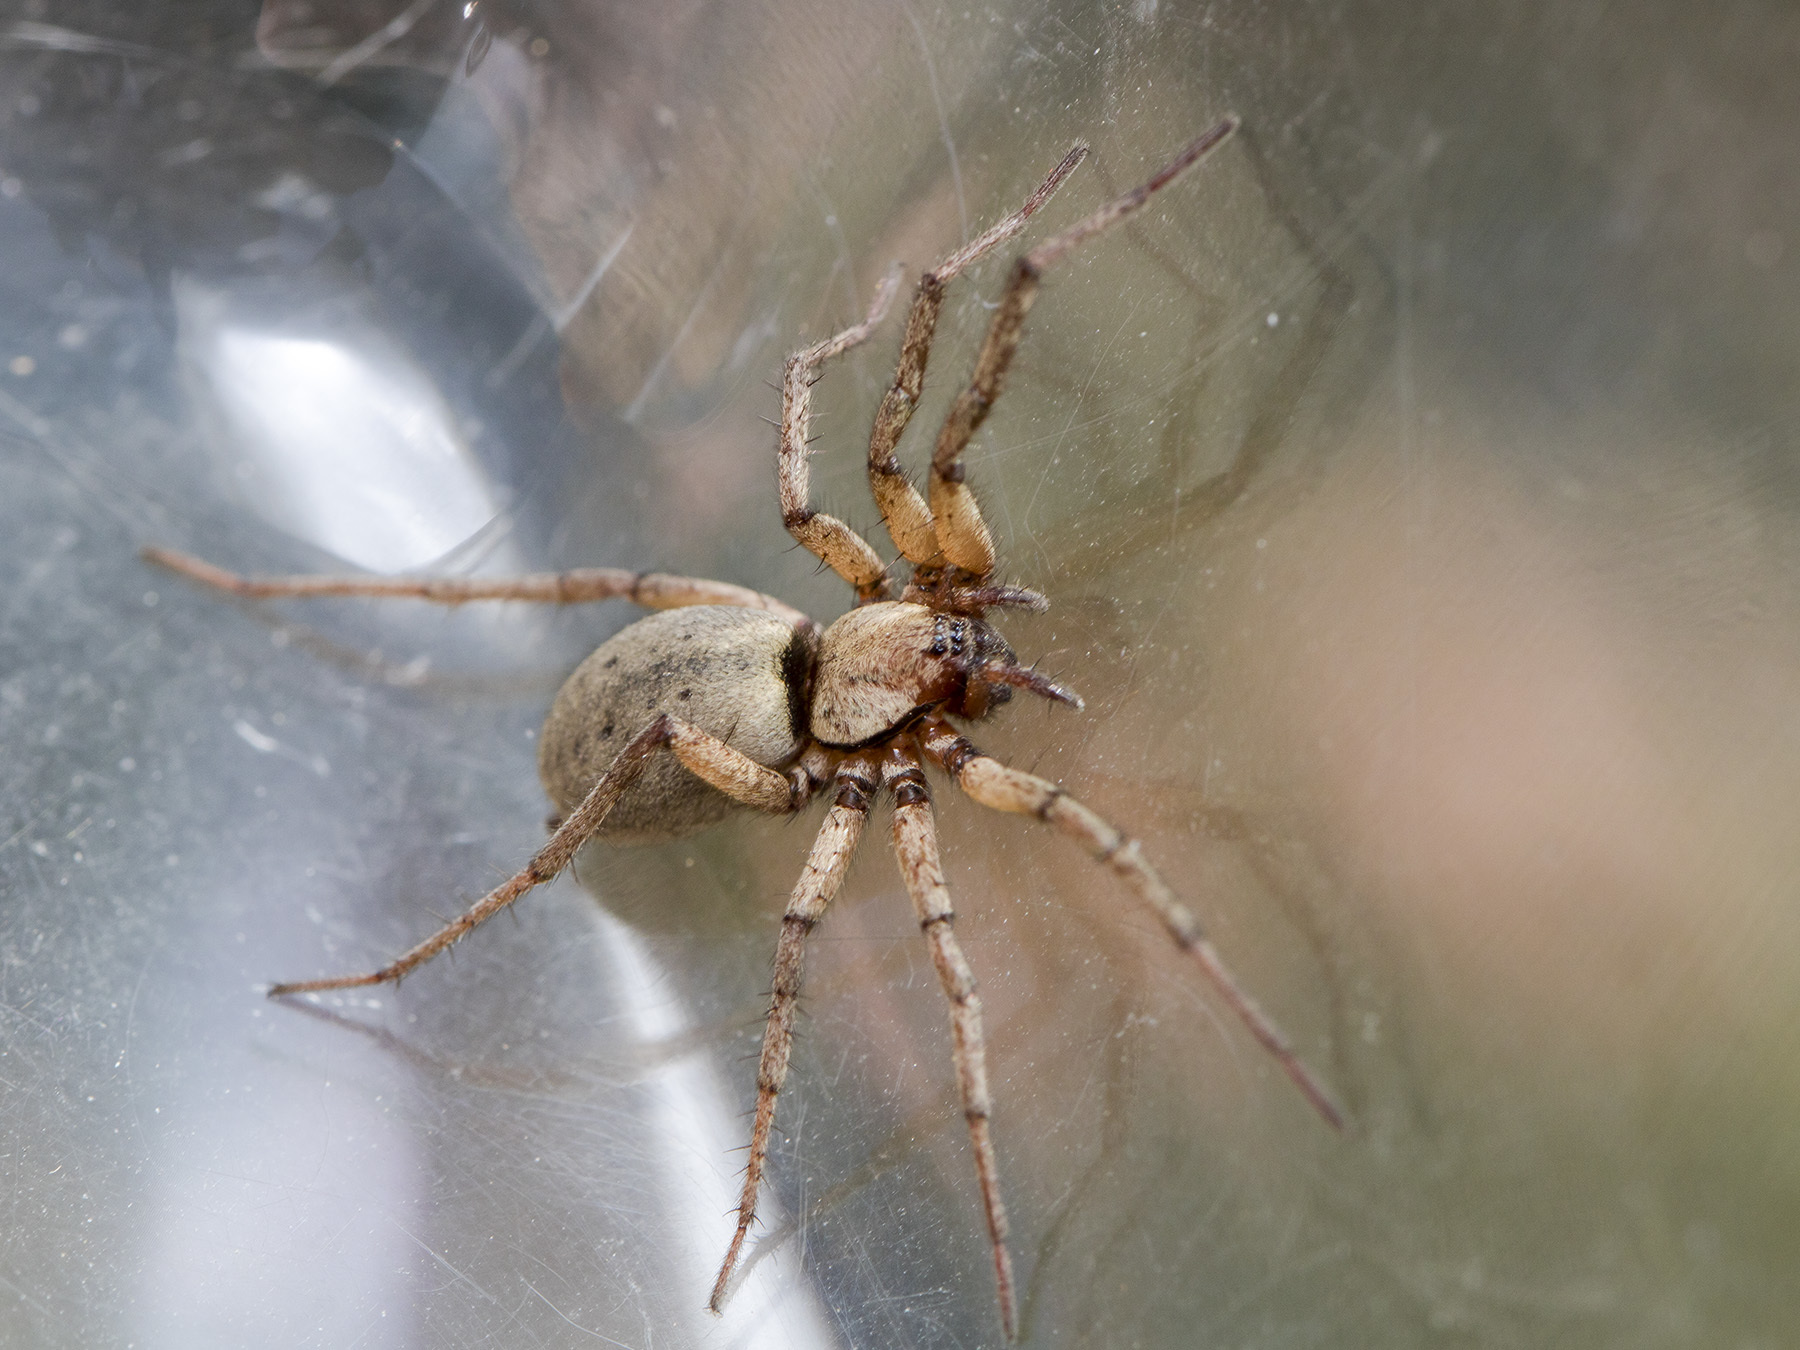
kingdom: Animalia
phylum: Arthropoda
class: Arachnida
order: Araneae
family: Gnaphosidae
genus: Nomisia
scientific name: Nomisia aussereri
